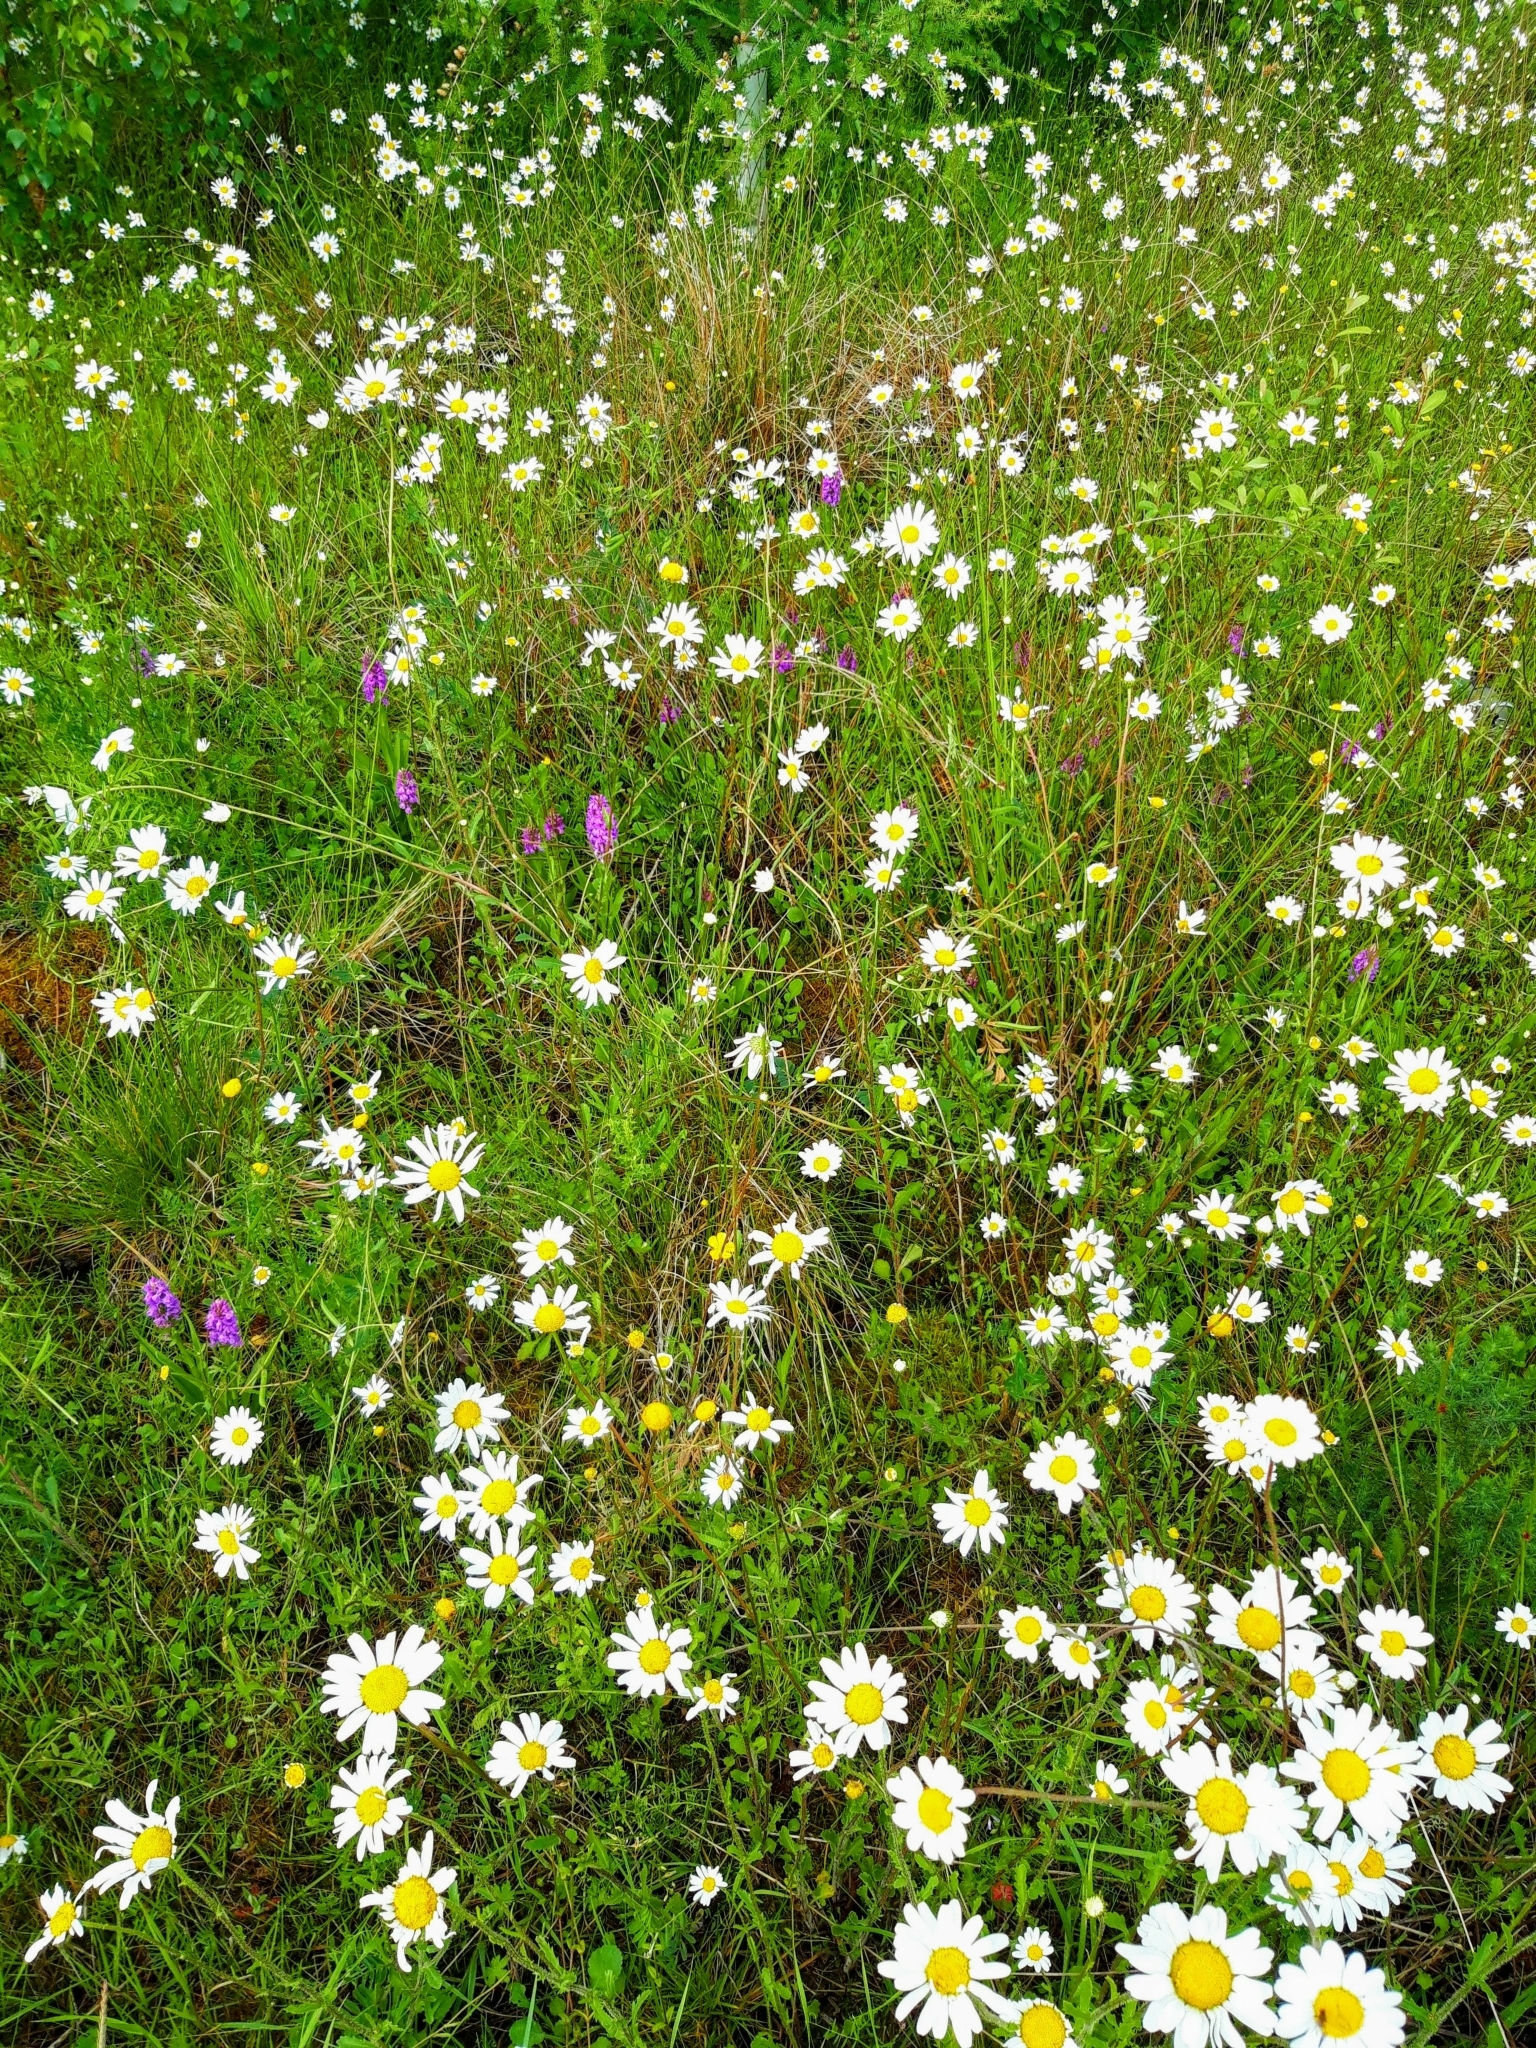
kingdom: Plantae
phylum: Tracheophyta
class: Magnoliopsida
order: Asterales
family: Asteraceae
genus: Leucanthemum
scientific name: Leucanthemum vulgare
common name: Oxeye daisy
